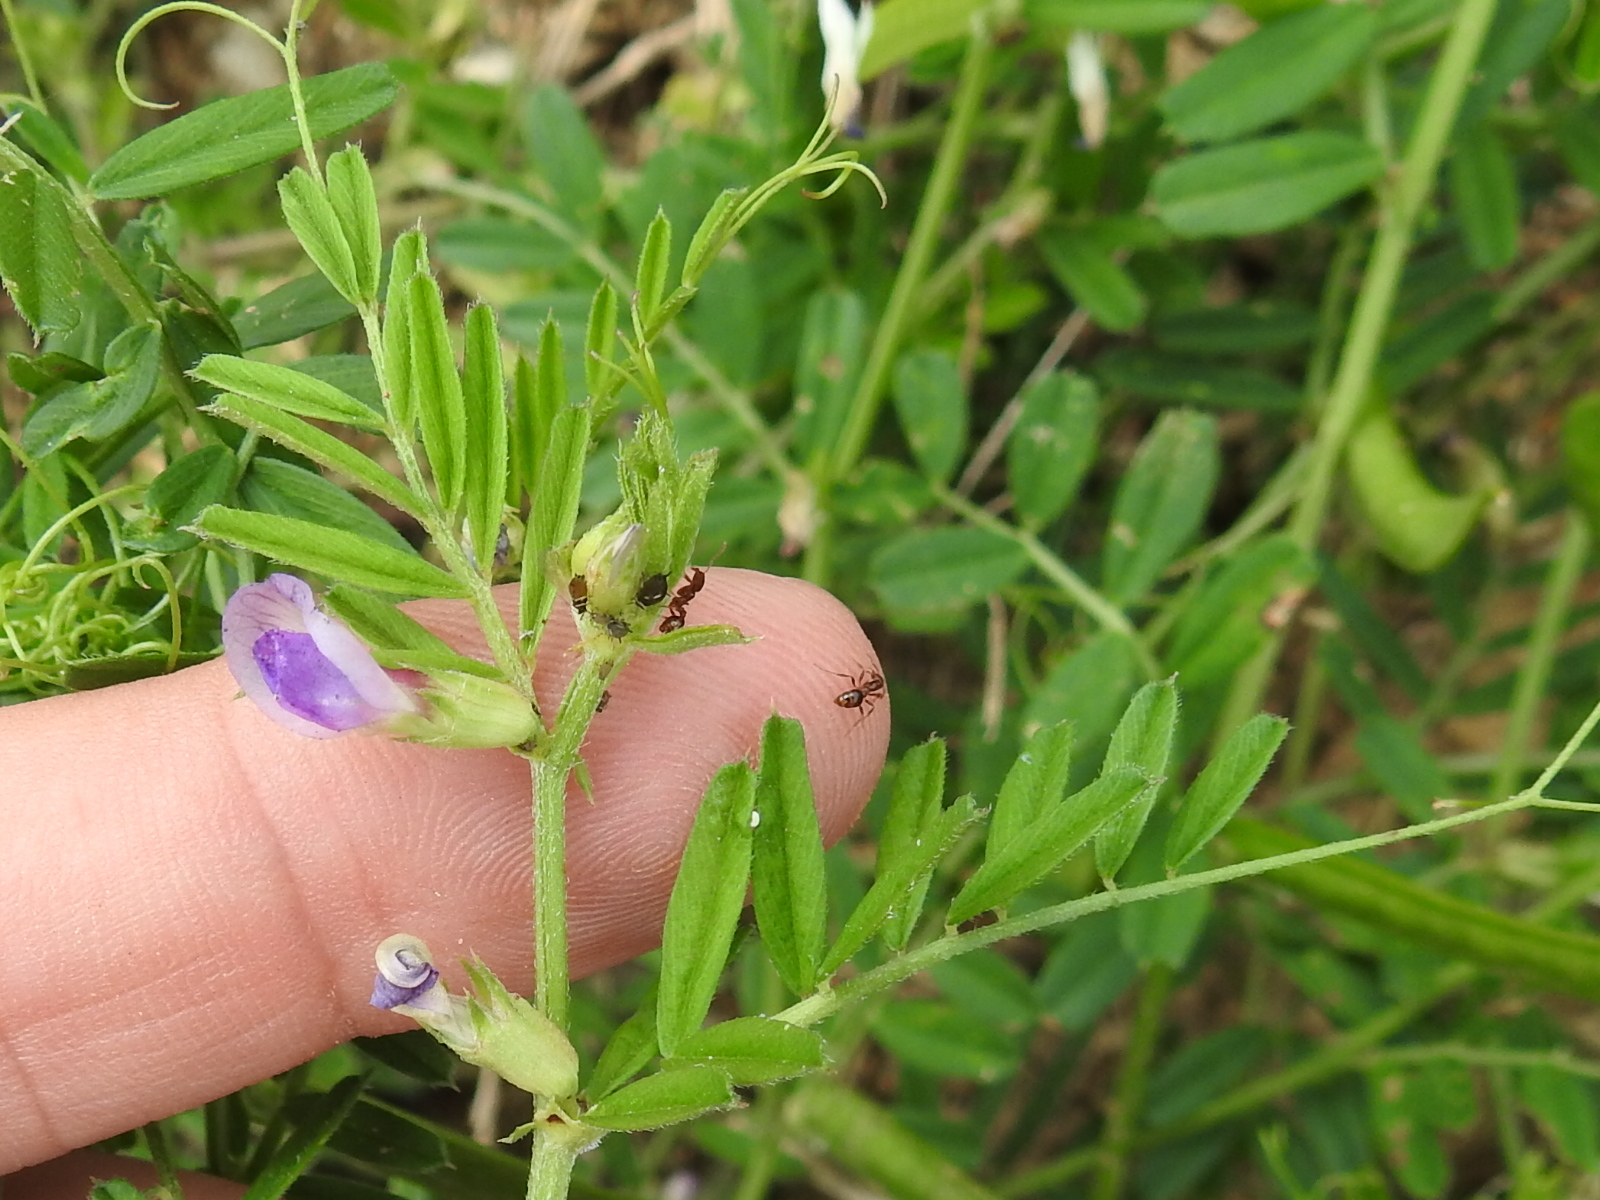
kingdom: Plantae
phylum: Tracheophyta
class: Magnoliopsida
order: Fabales
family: Fabaceae
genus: Vicia
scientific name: Vicia sativa
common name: Garden vetch
